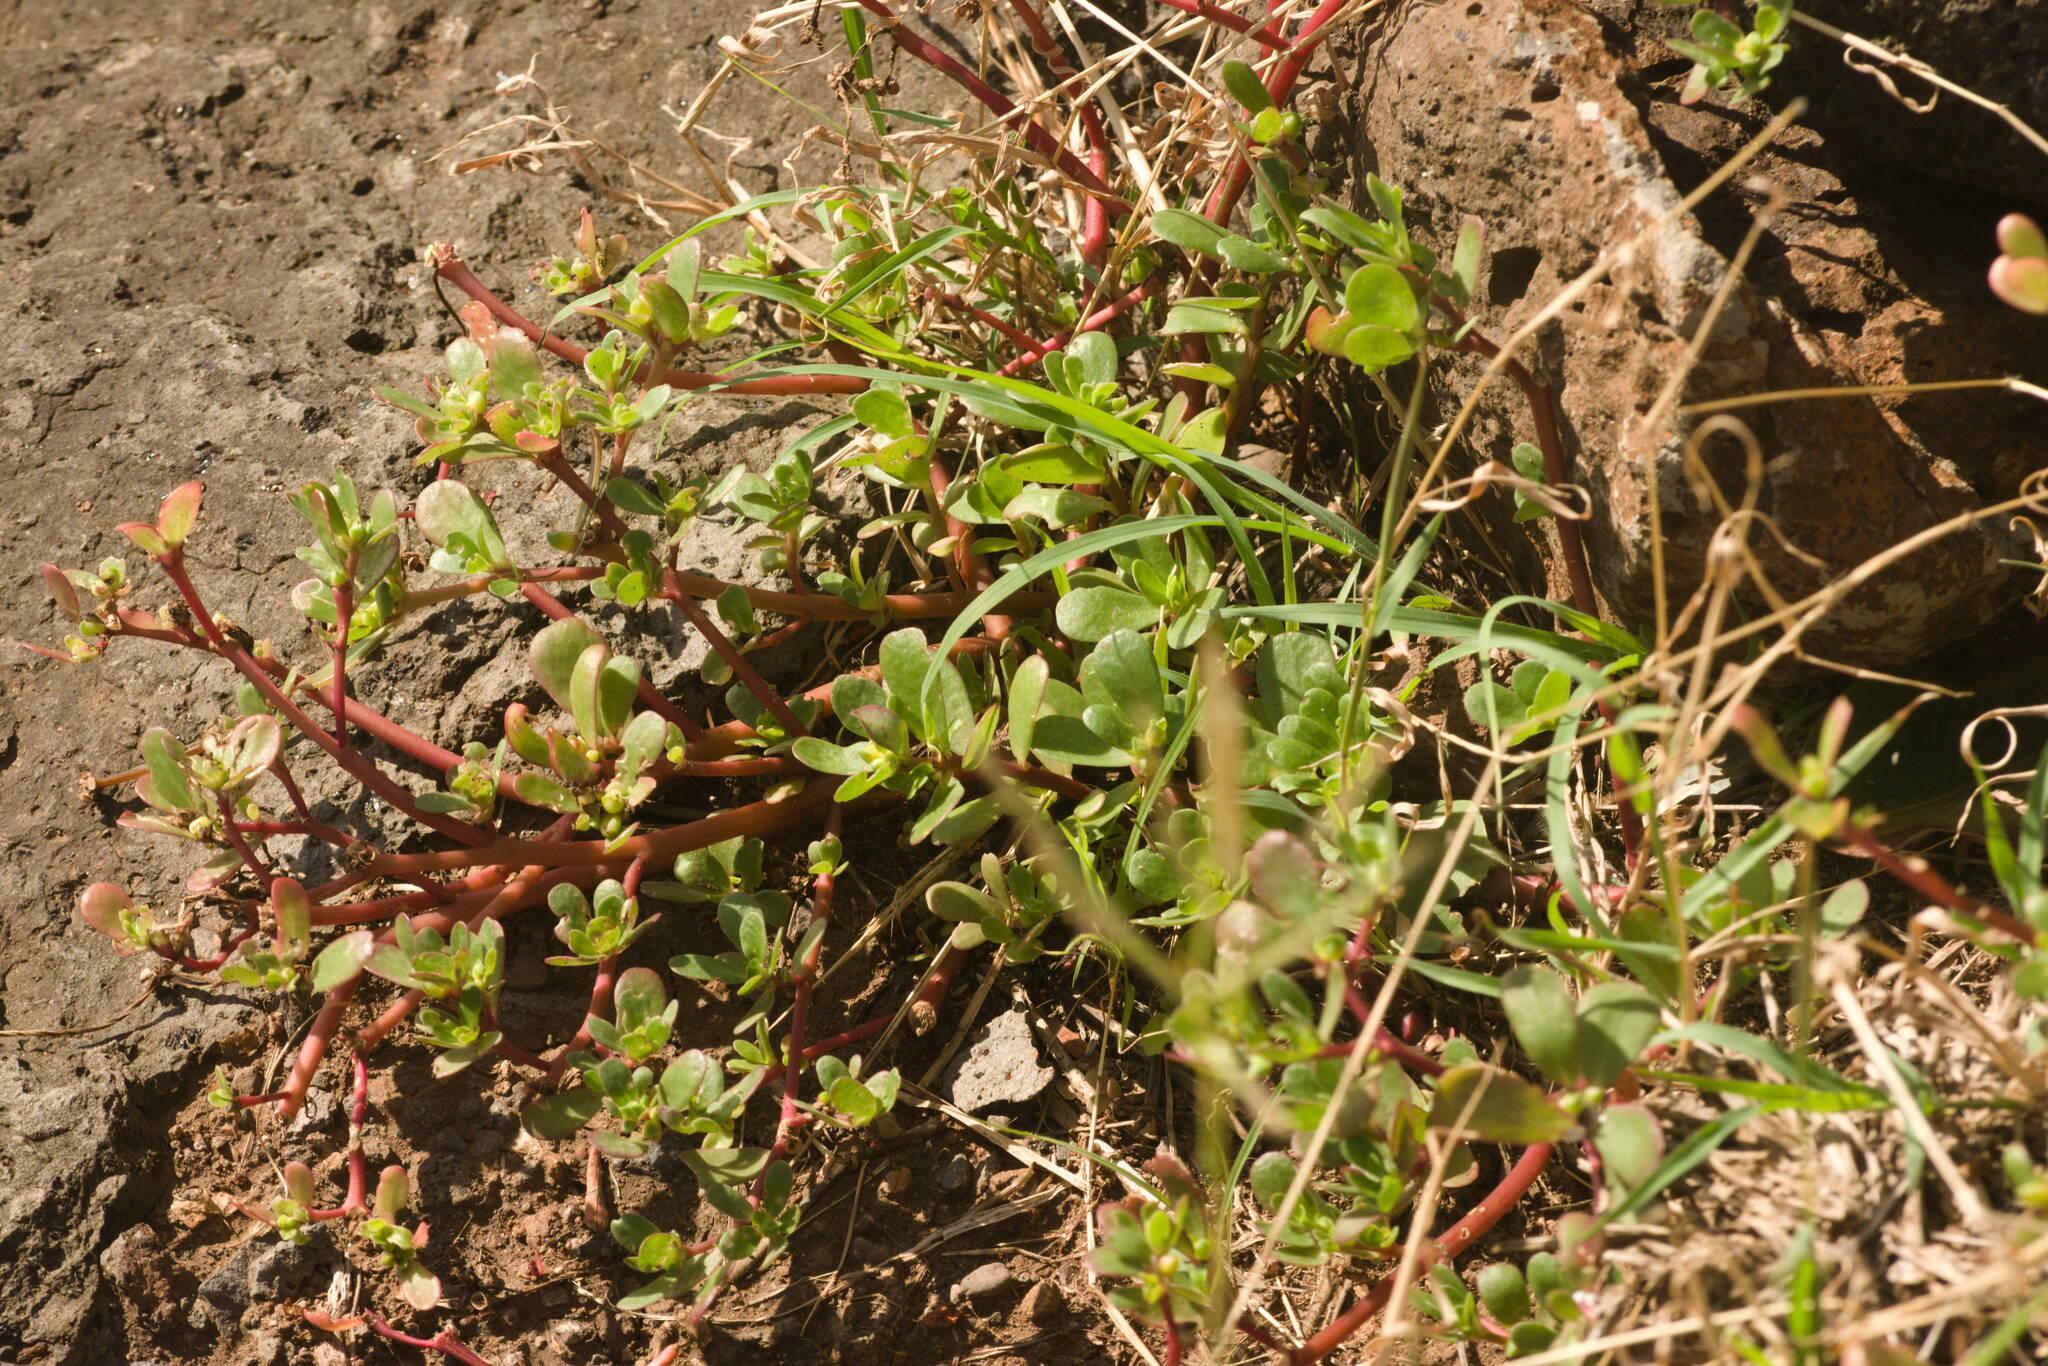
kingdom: Plantae
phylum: Tracheophyta
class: Magnoliopsida
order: Caryophyllales
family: Portulacaceae
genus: Portulaca
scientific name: Portulaca oleracea
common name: Common purslane
